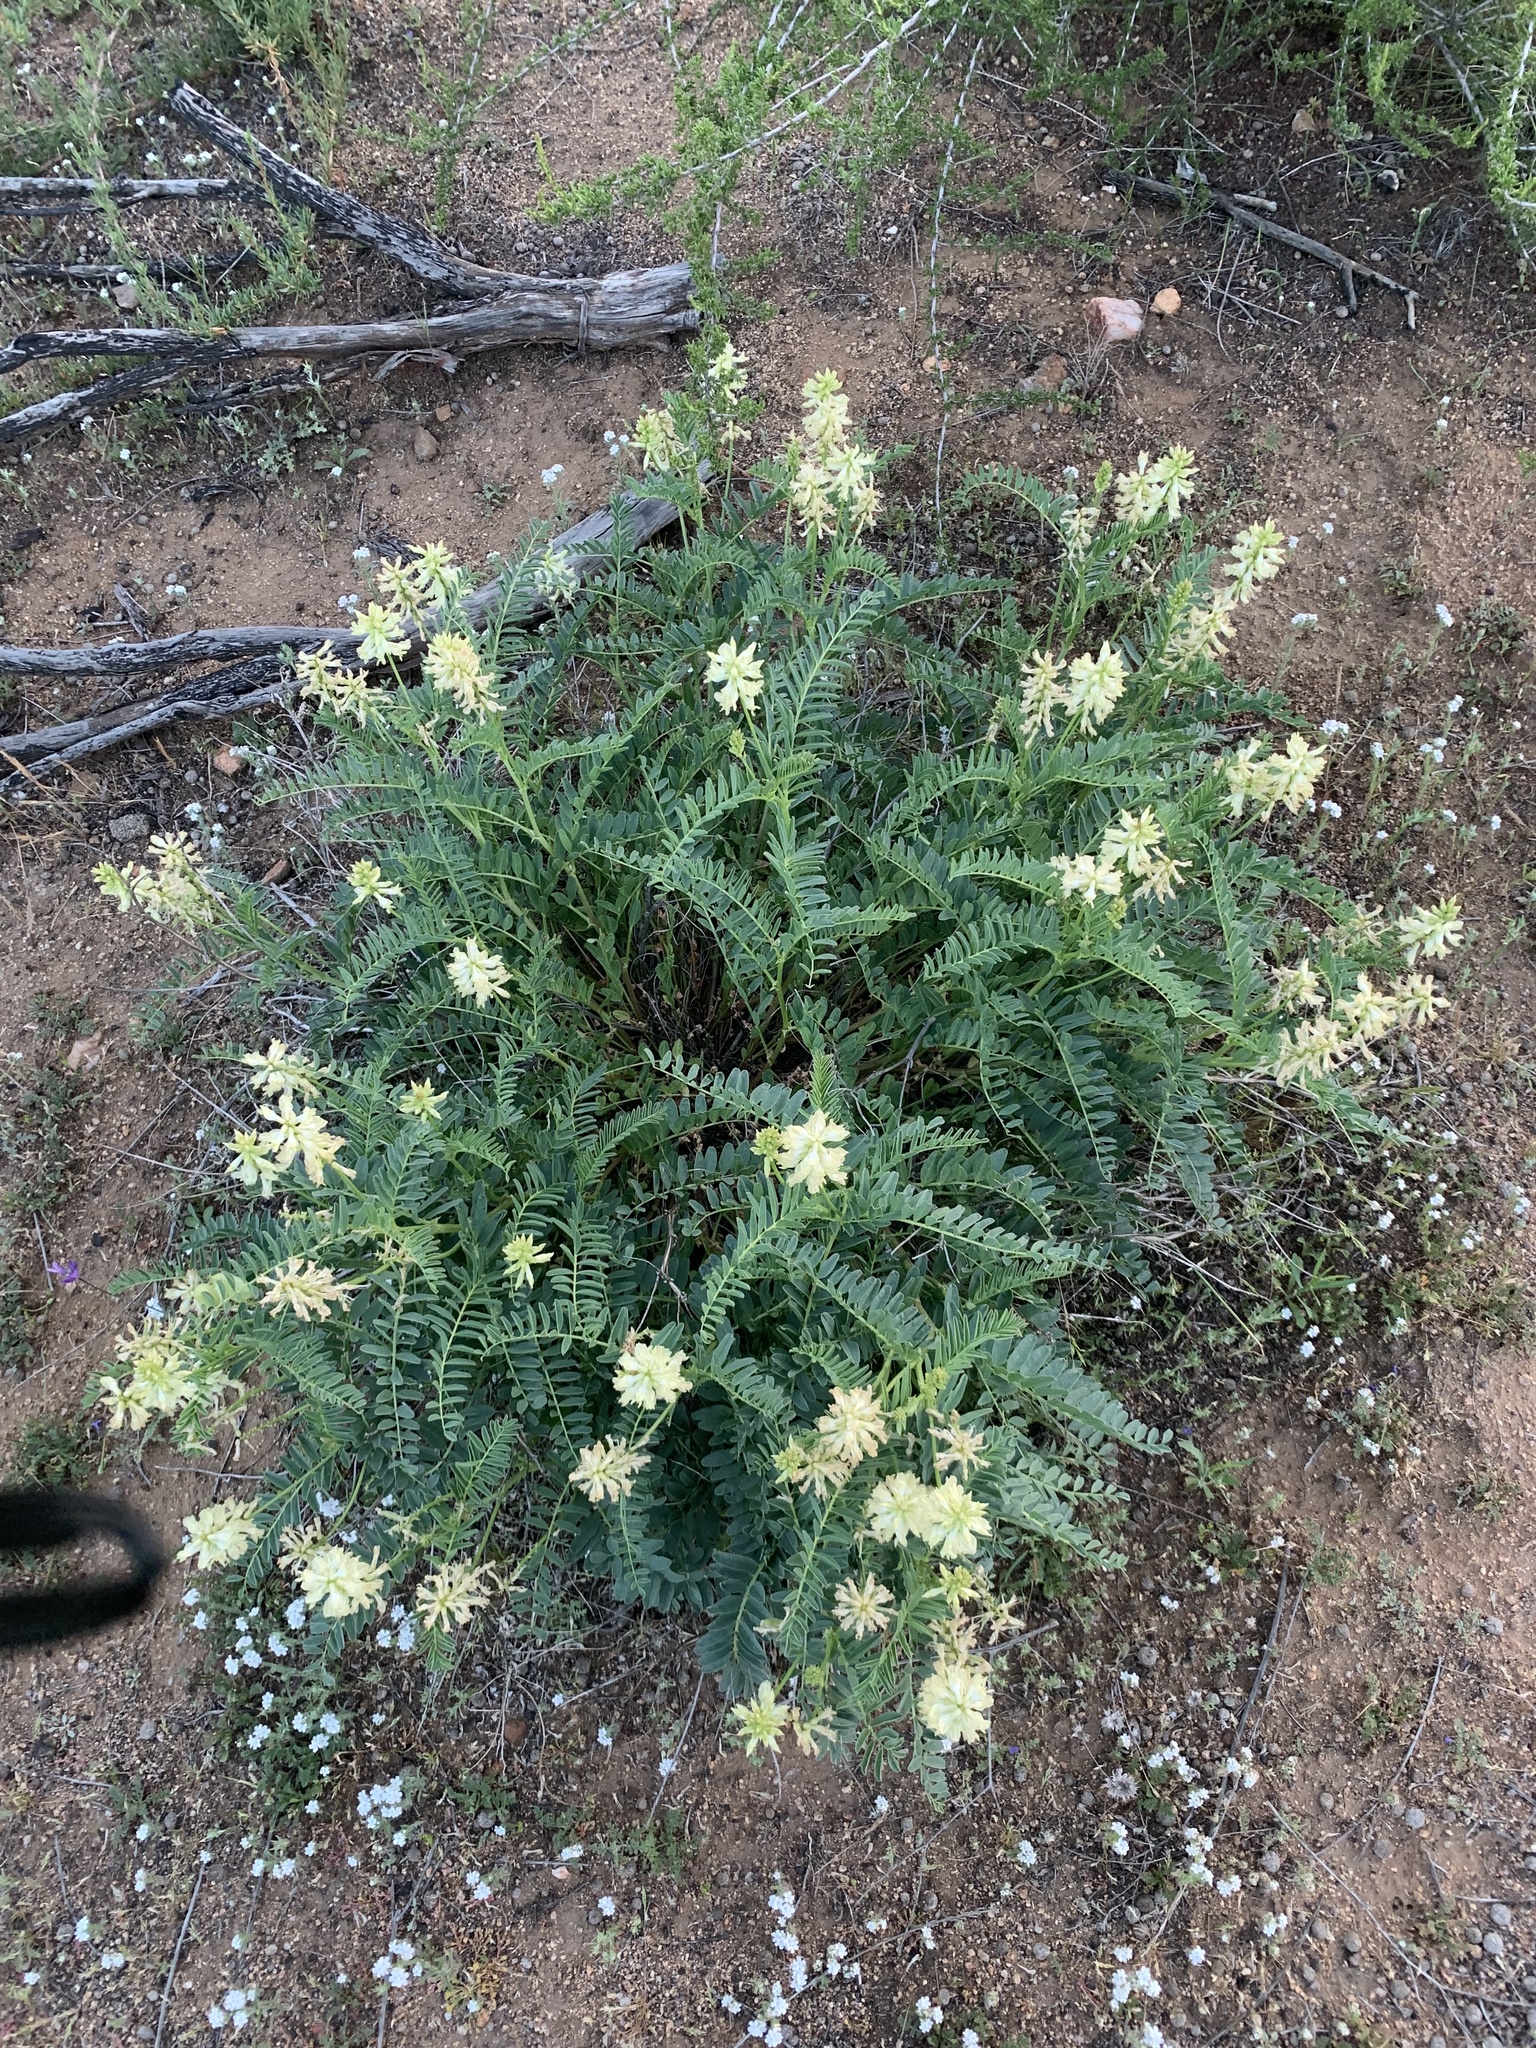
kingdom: Plantae
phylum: Tracheophyta
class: Magnoliopsida
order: Fabales
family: Fabaceae
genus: Astragalus
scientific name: Astragalus pomonensis
